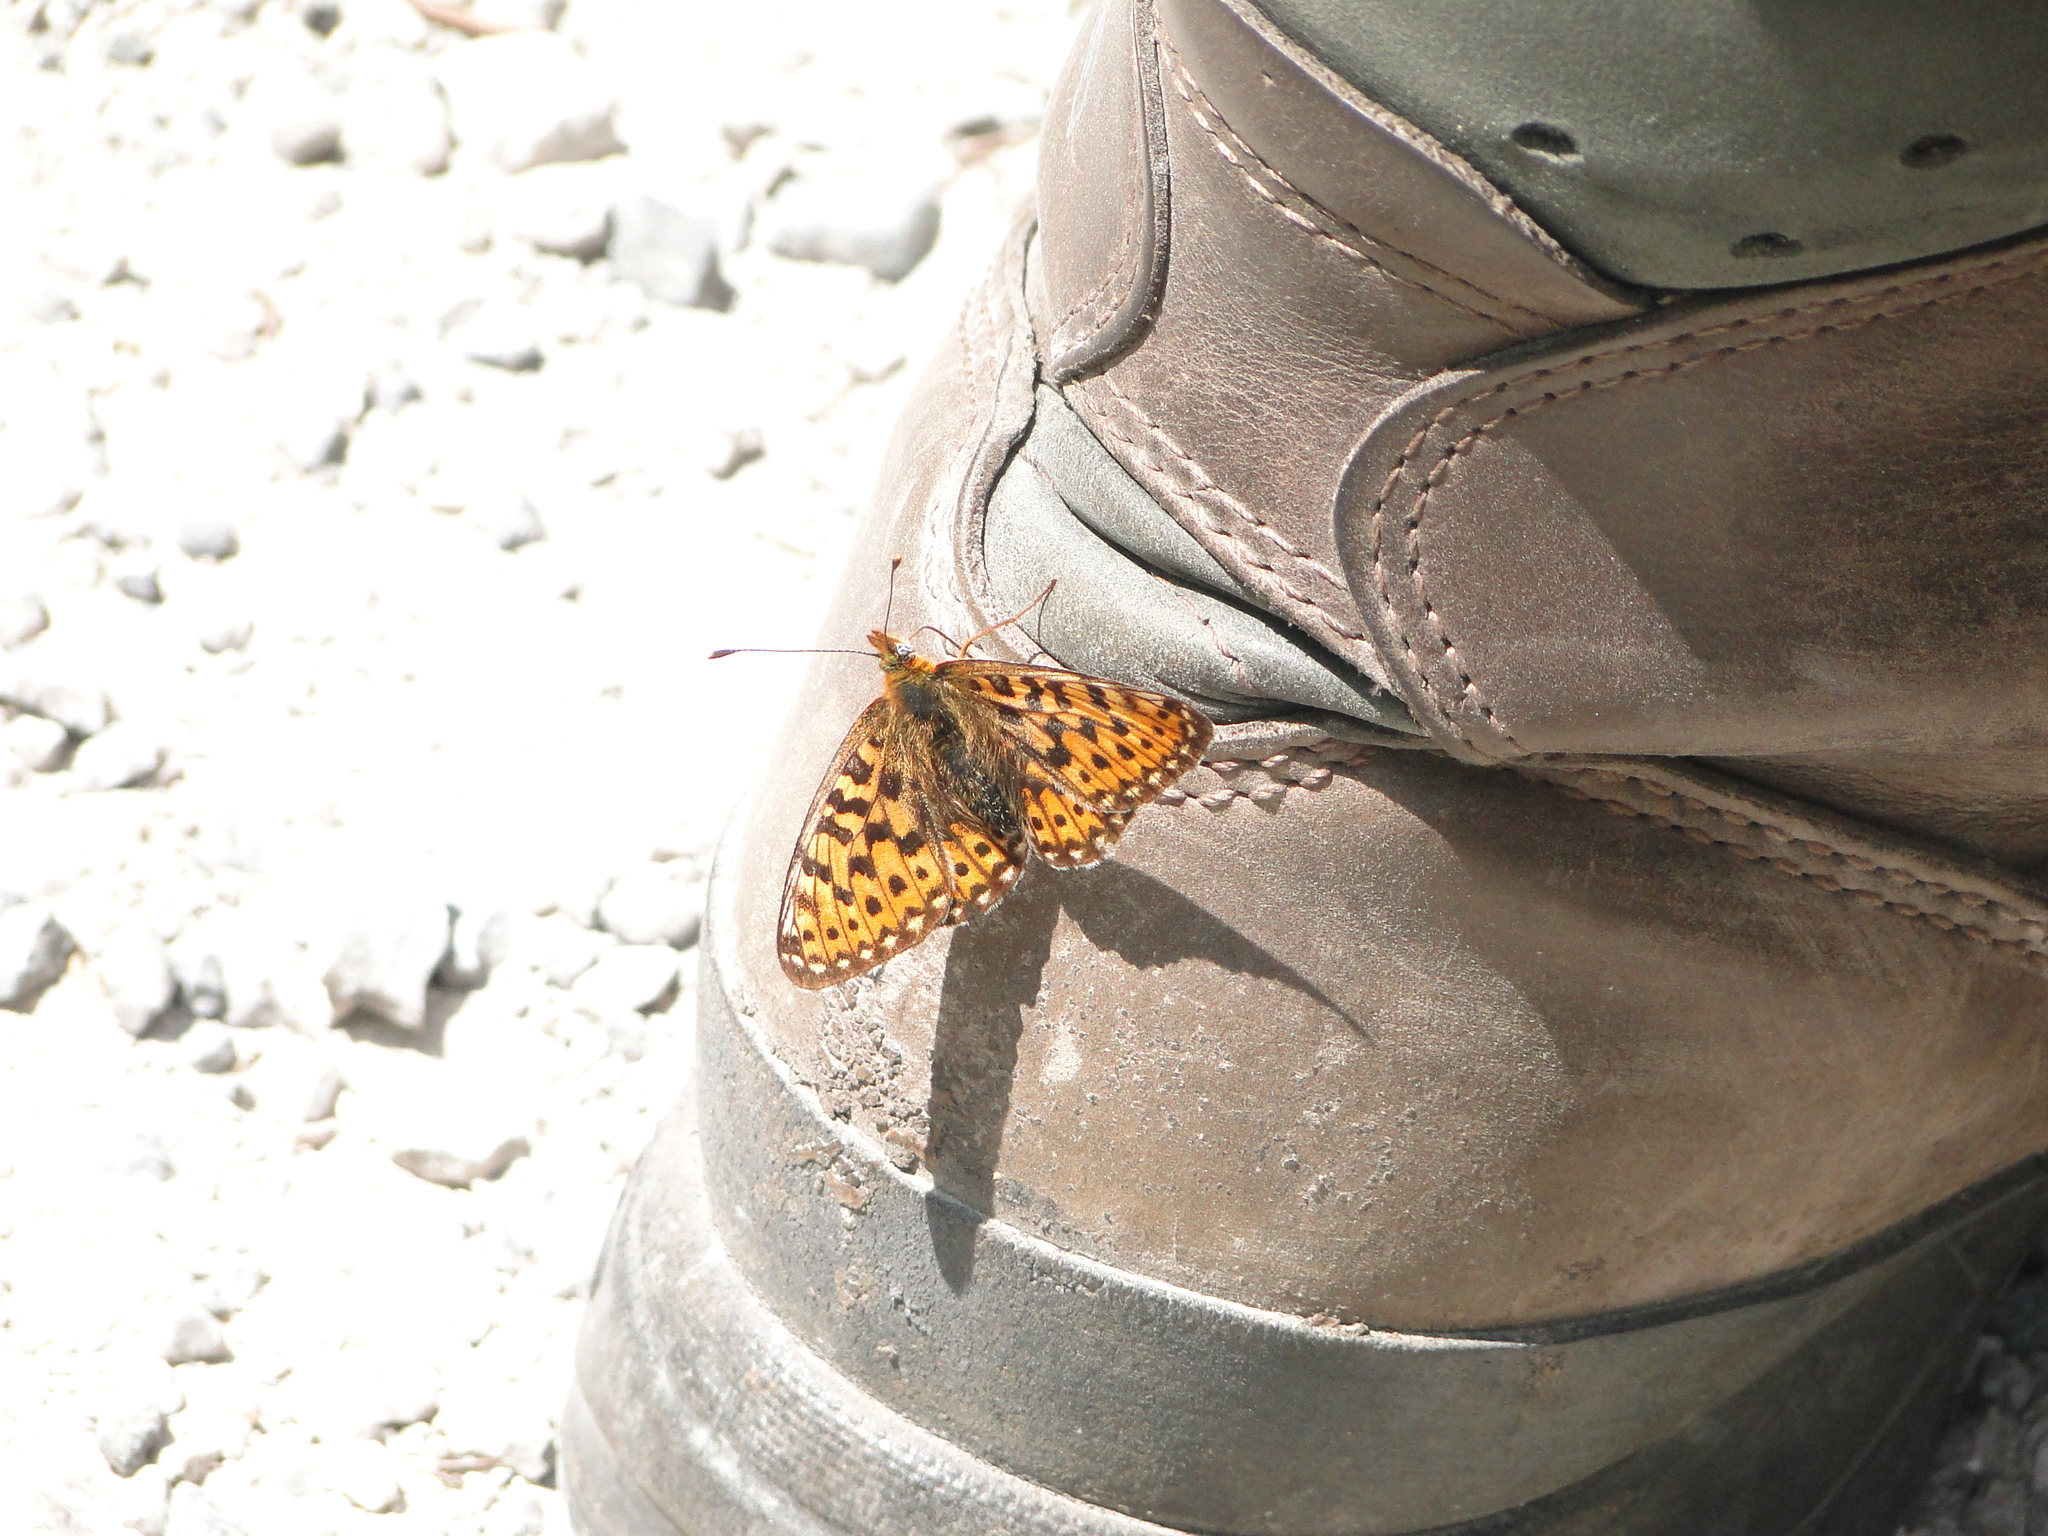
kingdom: Animalia
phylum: Arthropoda
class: Insecta
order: Lepidoptera
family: Nymphalidae
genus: Clossiana
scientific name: Clossiana euphrosyne
